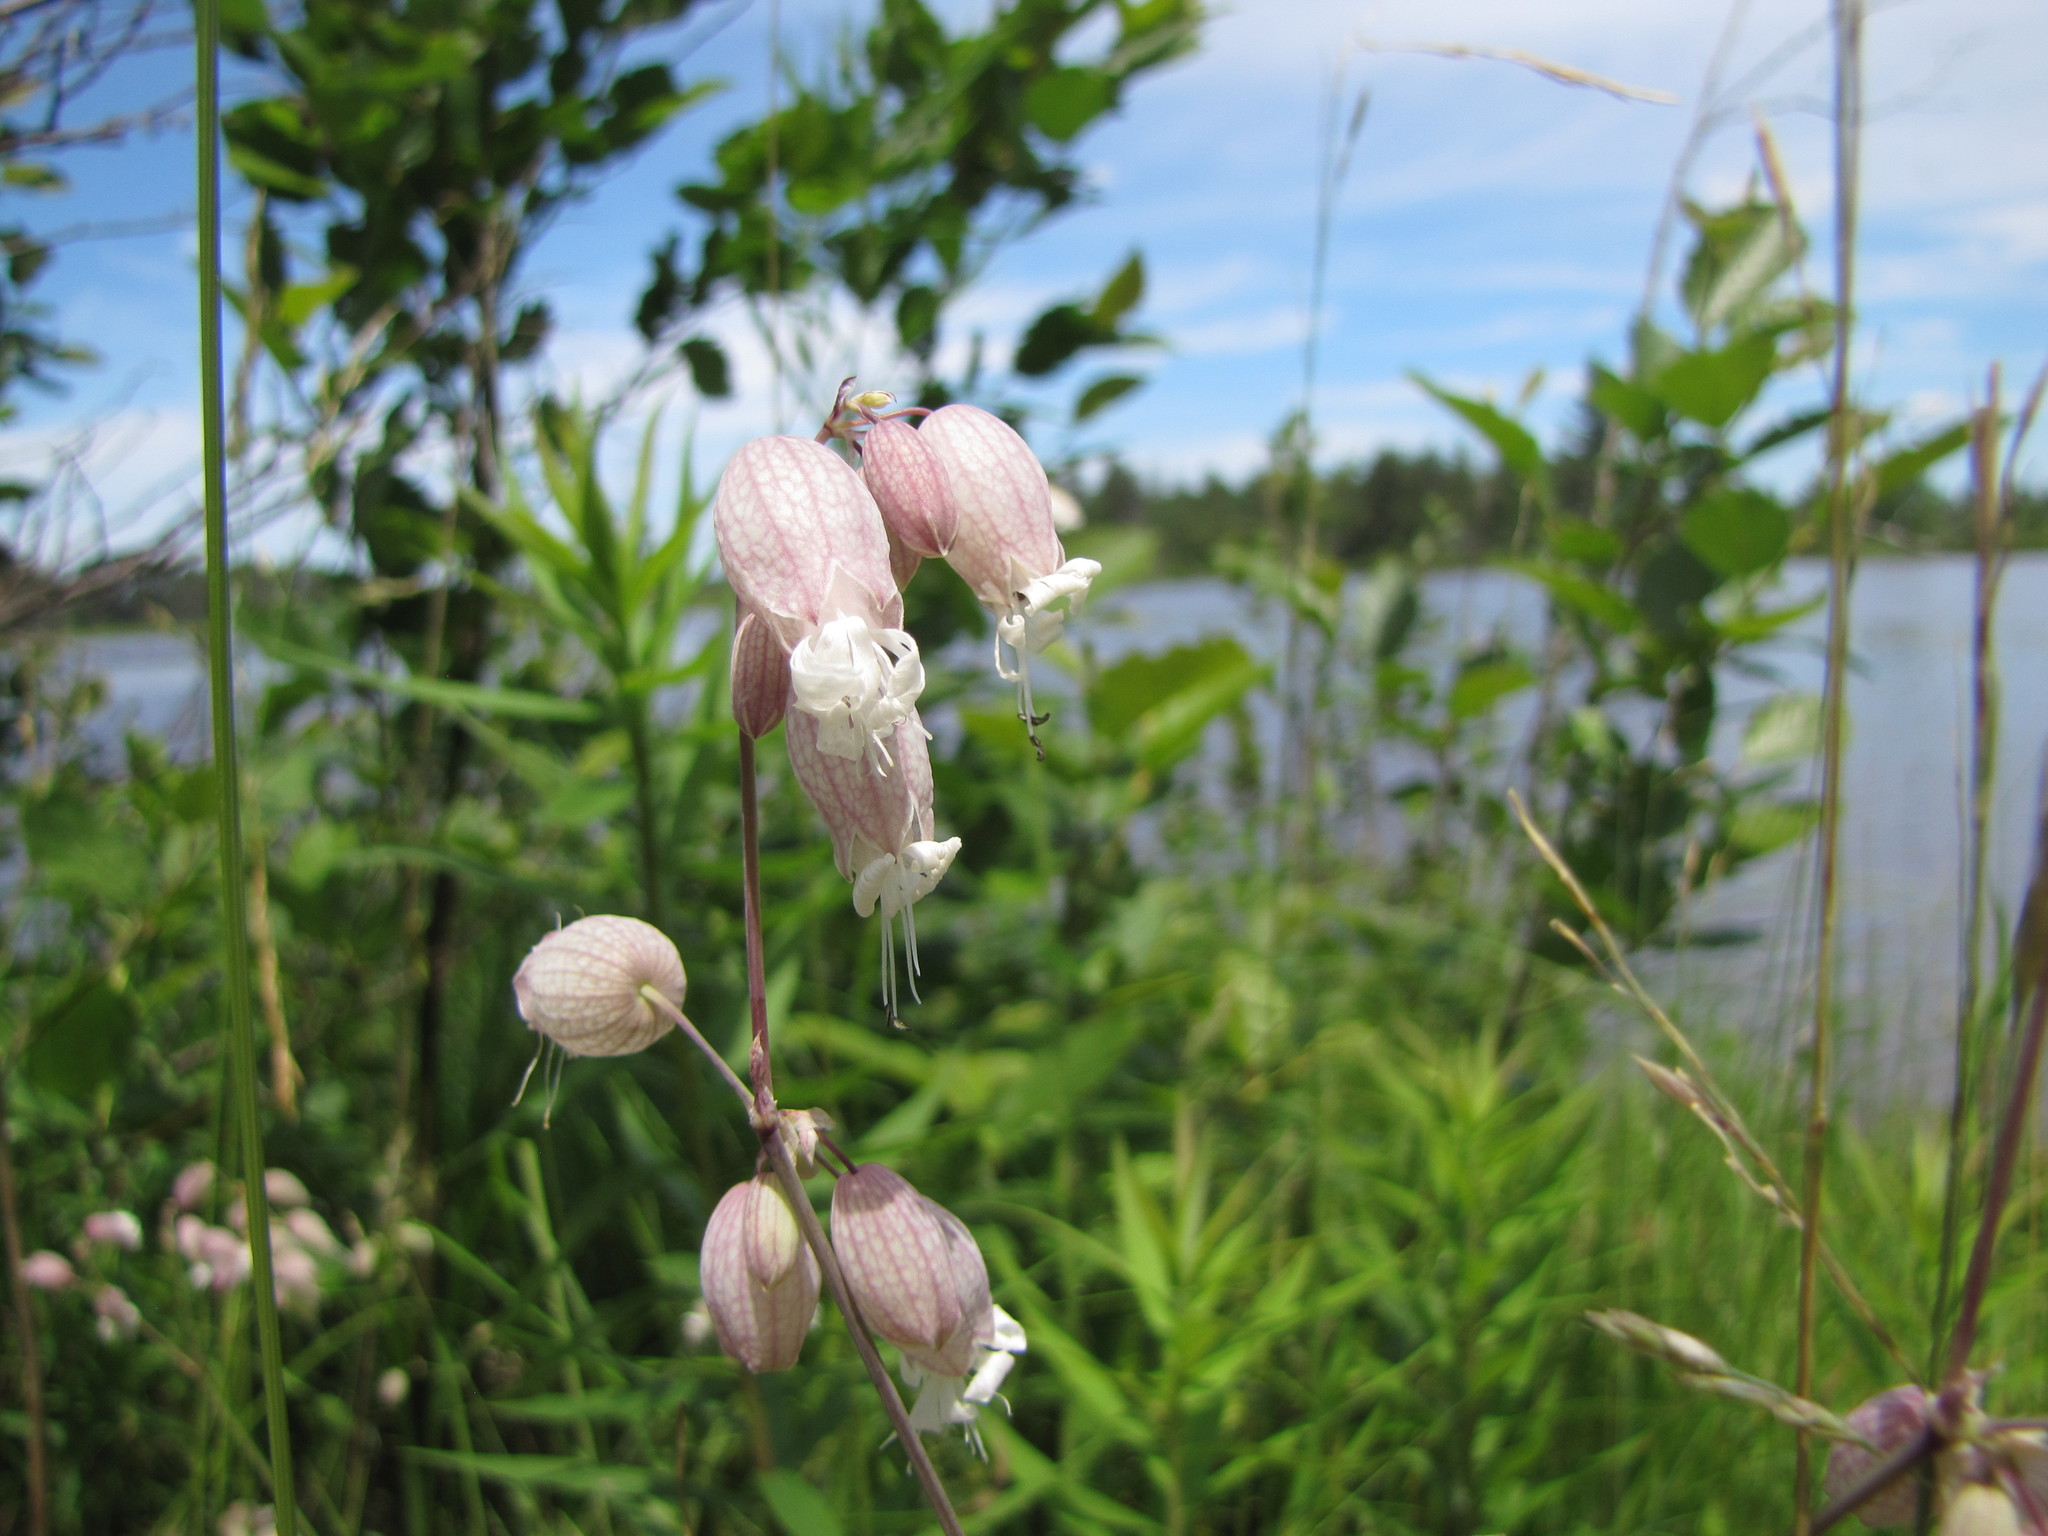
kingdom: Plantae
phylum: Tracheophyta
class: Magnoliopsida
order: Caryophyllales
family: Caryophyllaceae
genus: Silene
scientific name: Silene vulgaris
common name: Bladder campion
